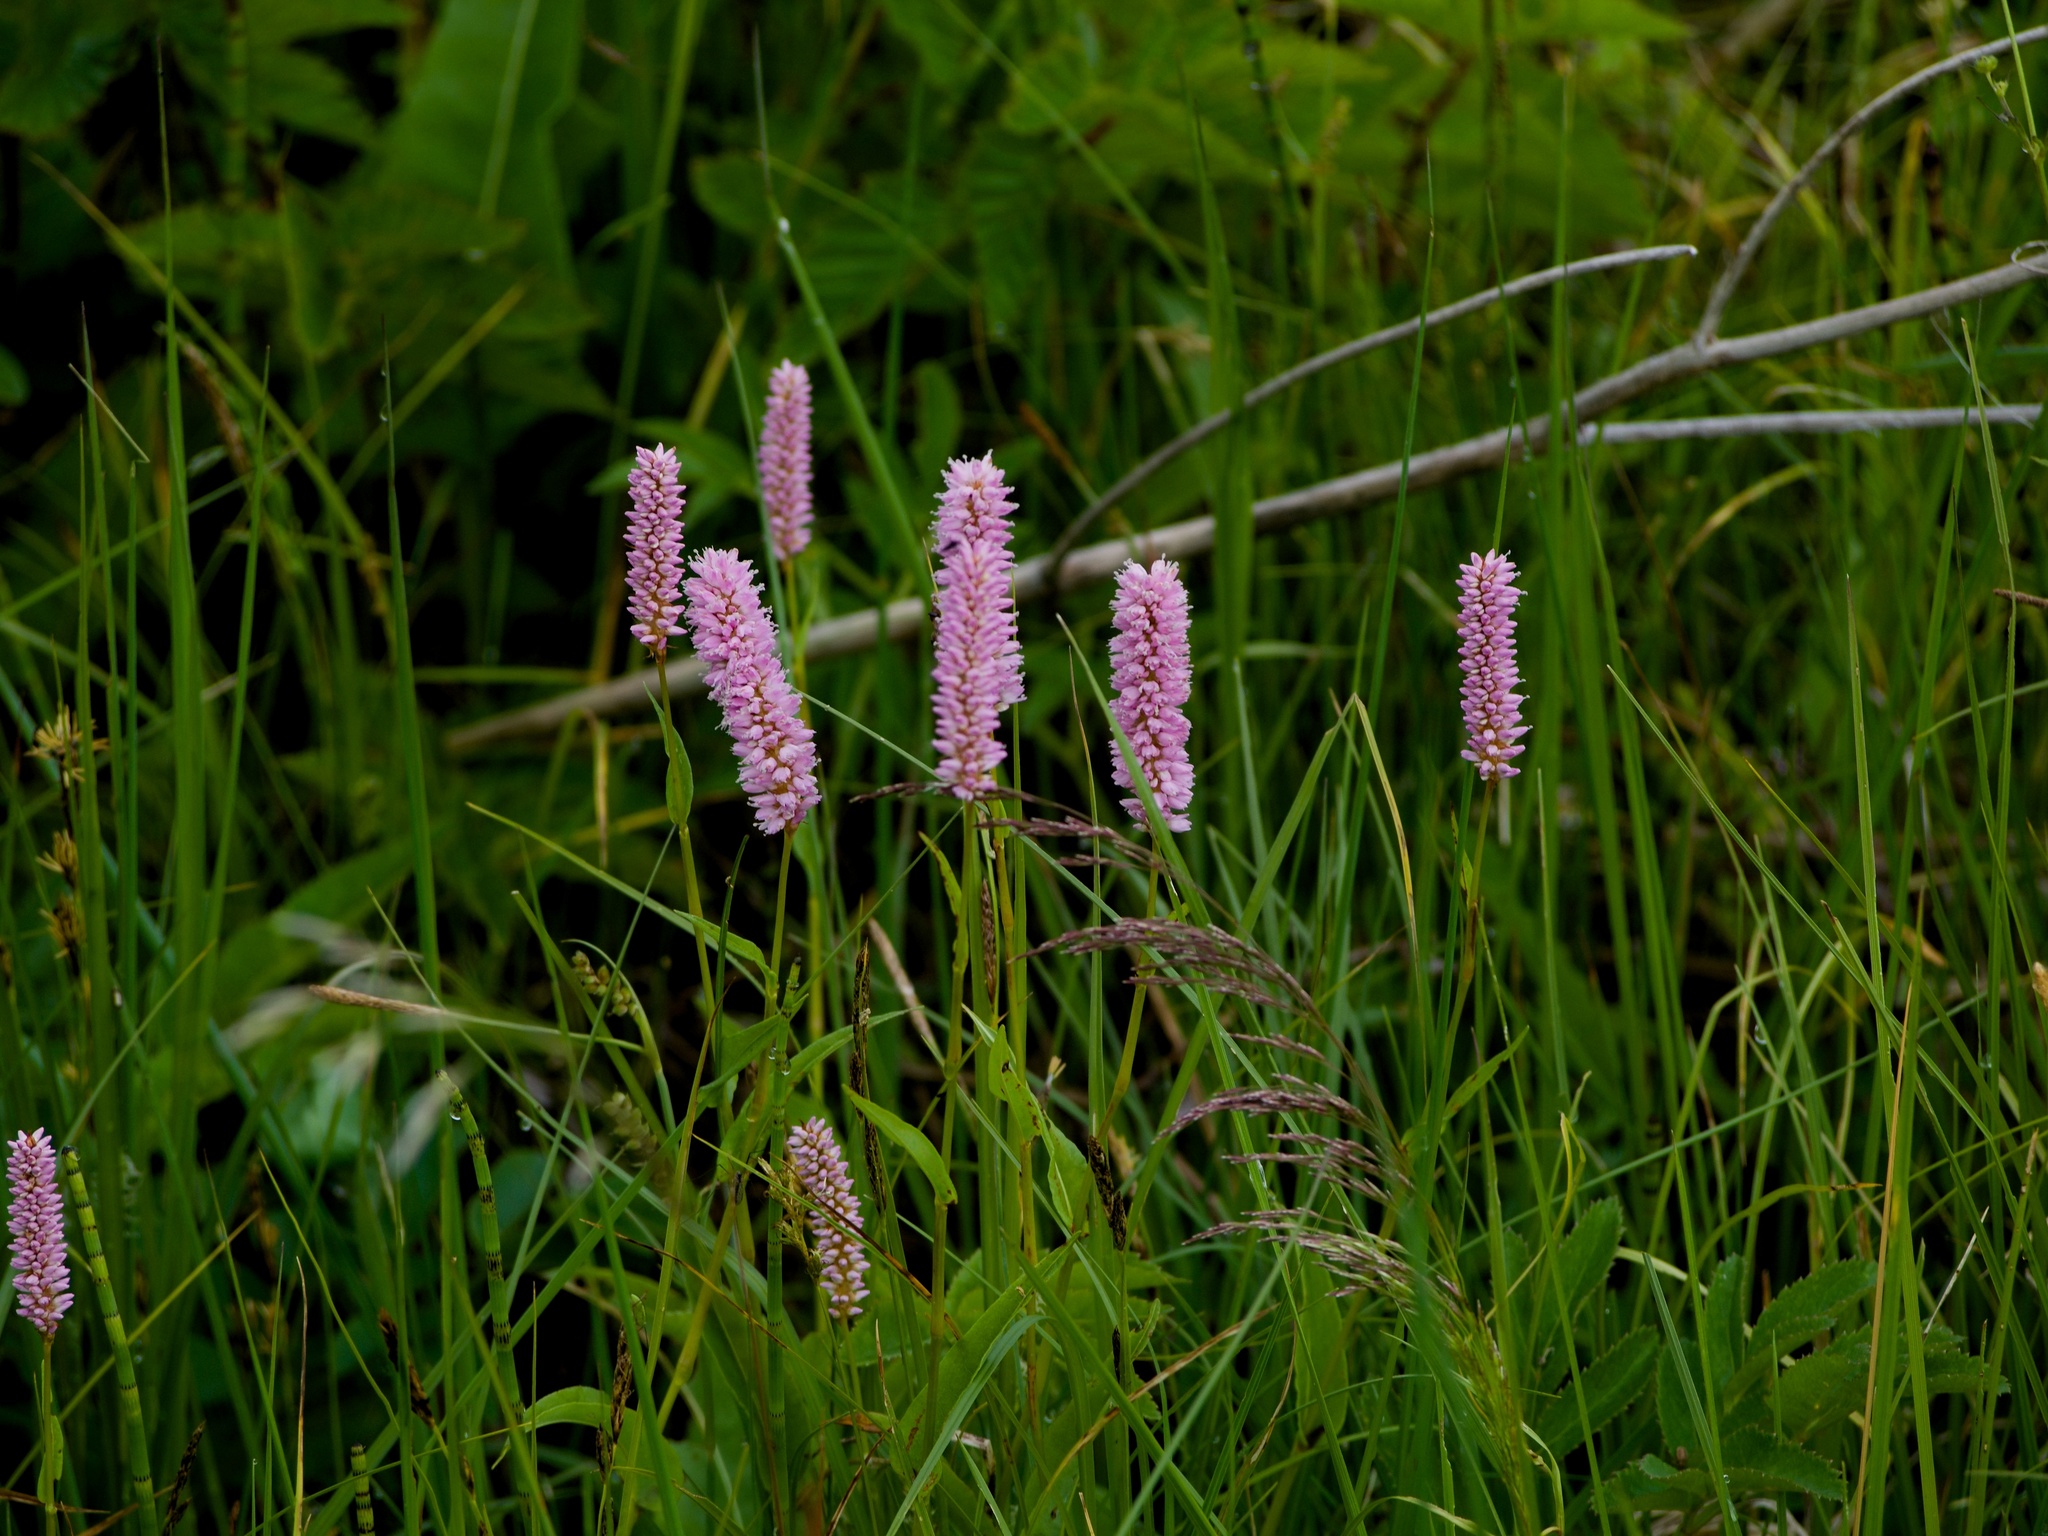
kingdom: Plantae
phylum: Tracheophyta
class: Magnoliopsida
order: Caryophyllales
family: Polygonaceae
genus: Bistorta
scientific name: Bistorta officinalis
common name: Common bistort
